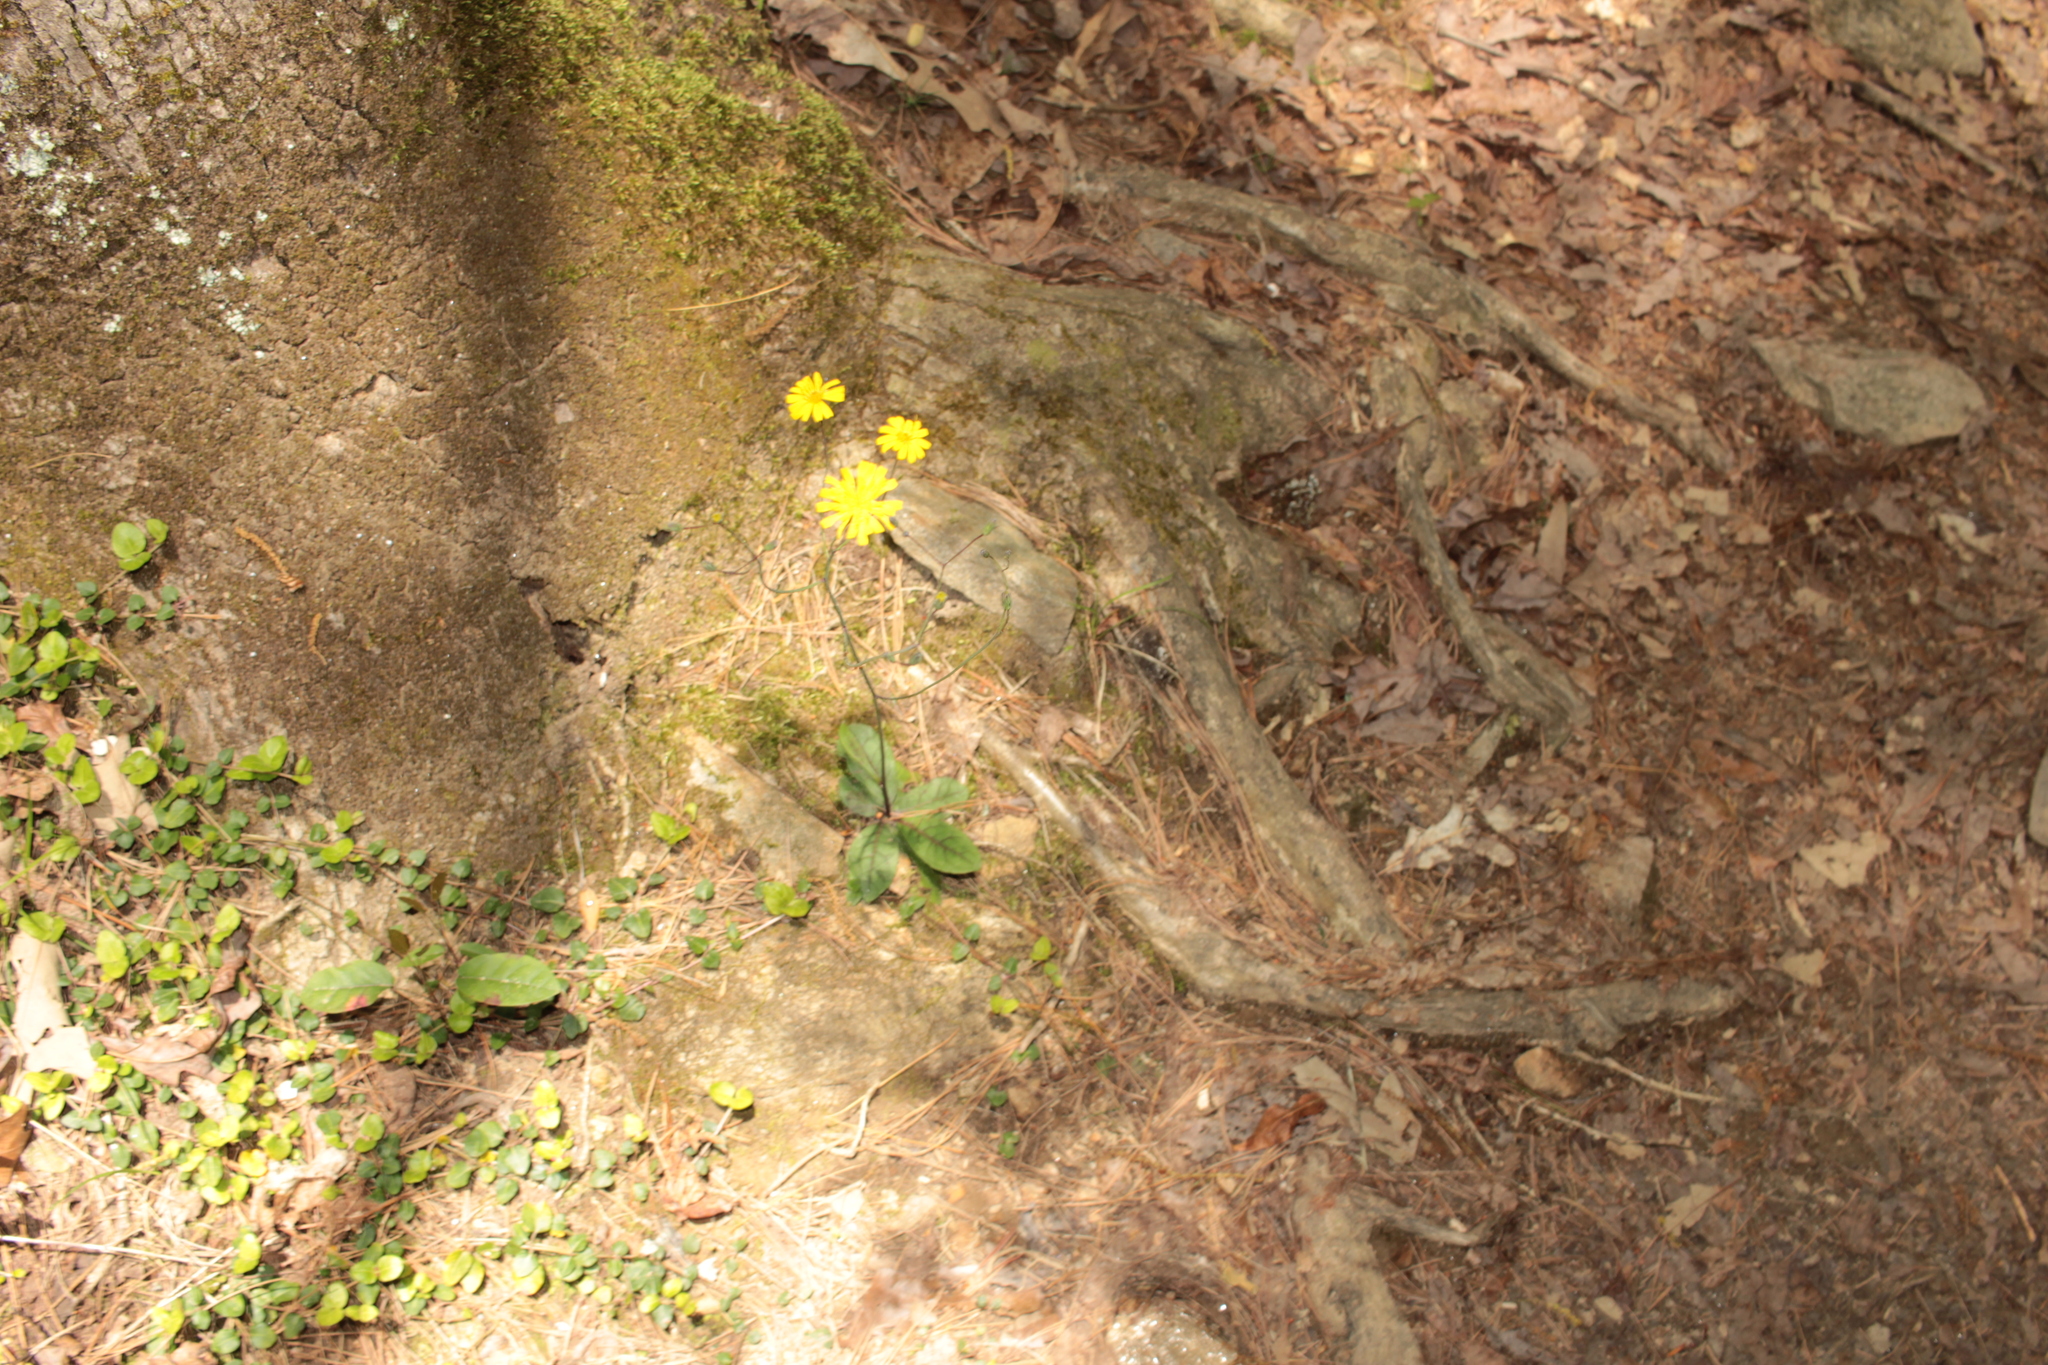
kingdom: Plantae
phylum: Tracheophyta
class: Magnoliopsida
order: Asterales
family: Asteraceae
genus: Hieracium
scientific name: Hieracium venosum
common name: Rattlesnake hawkweed
